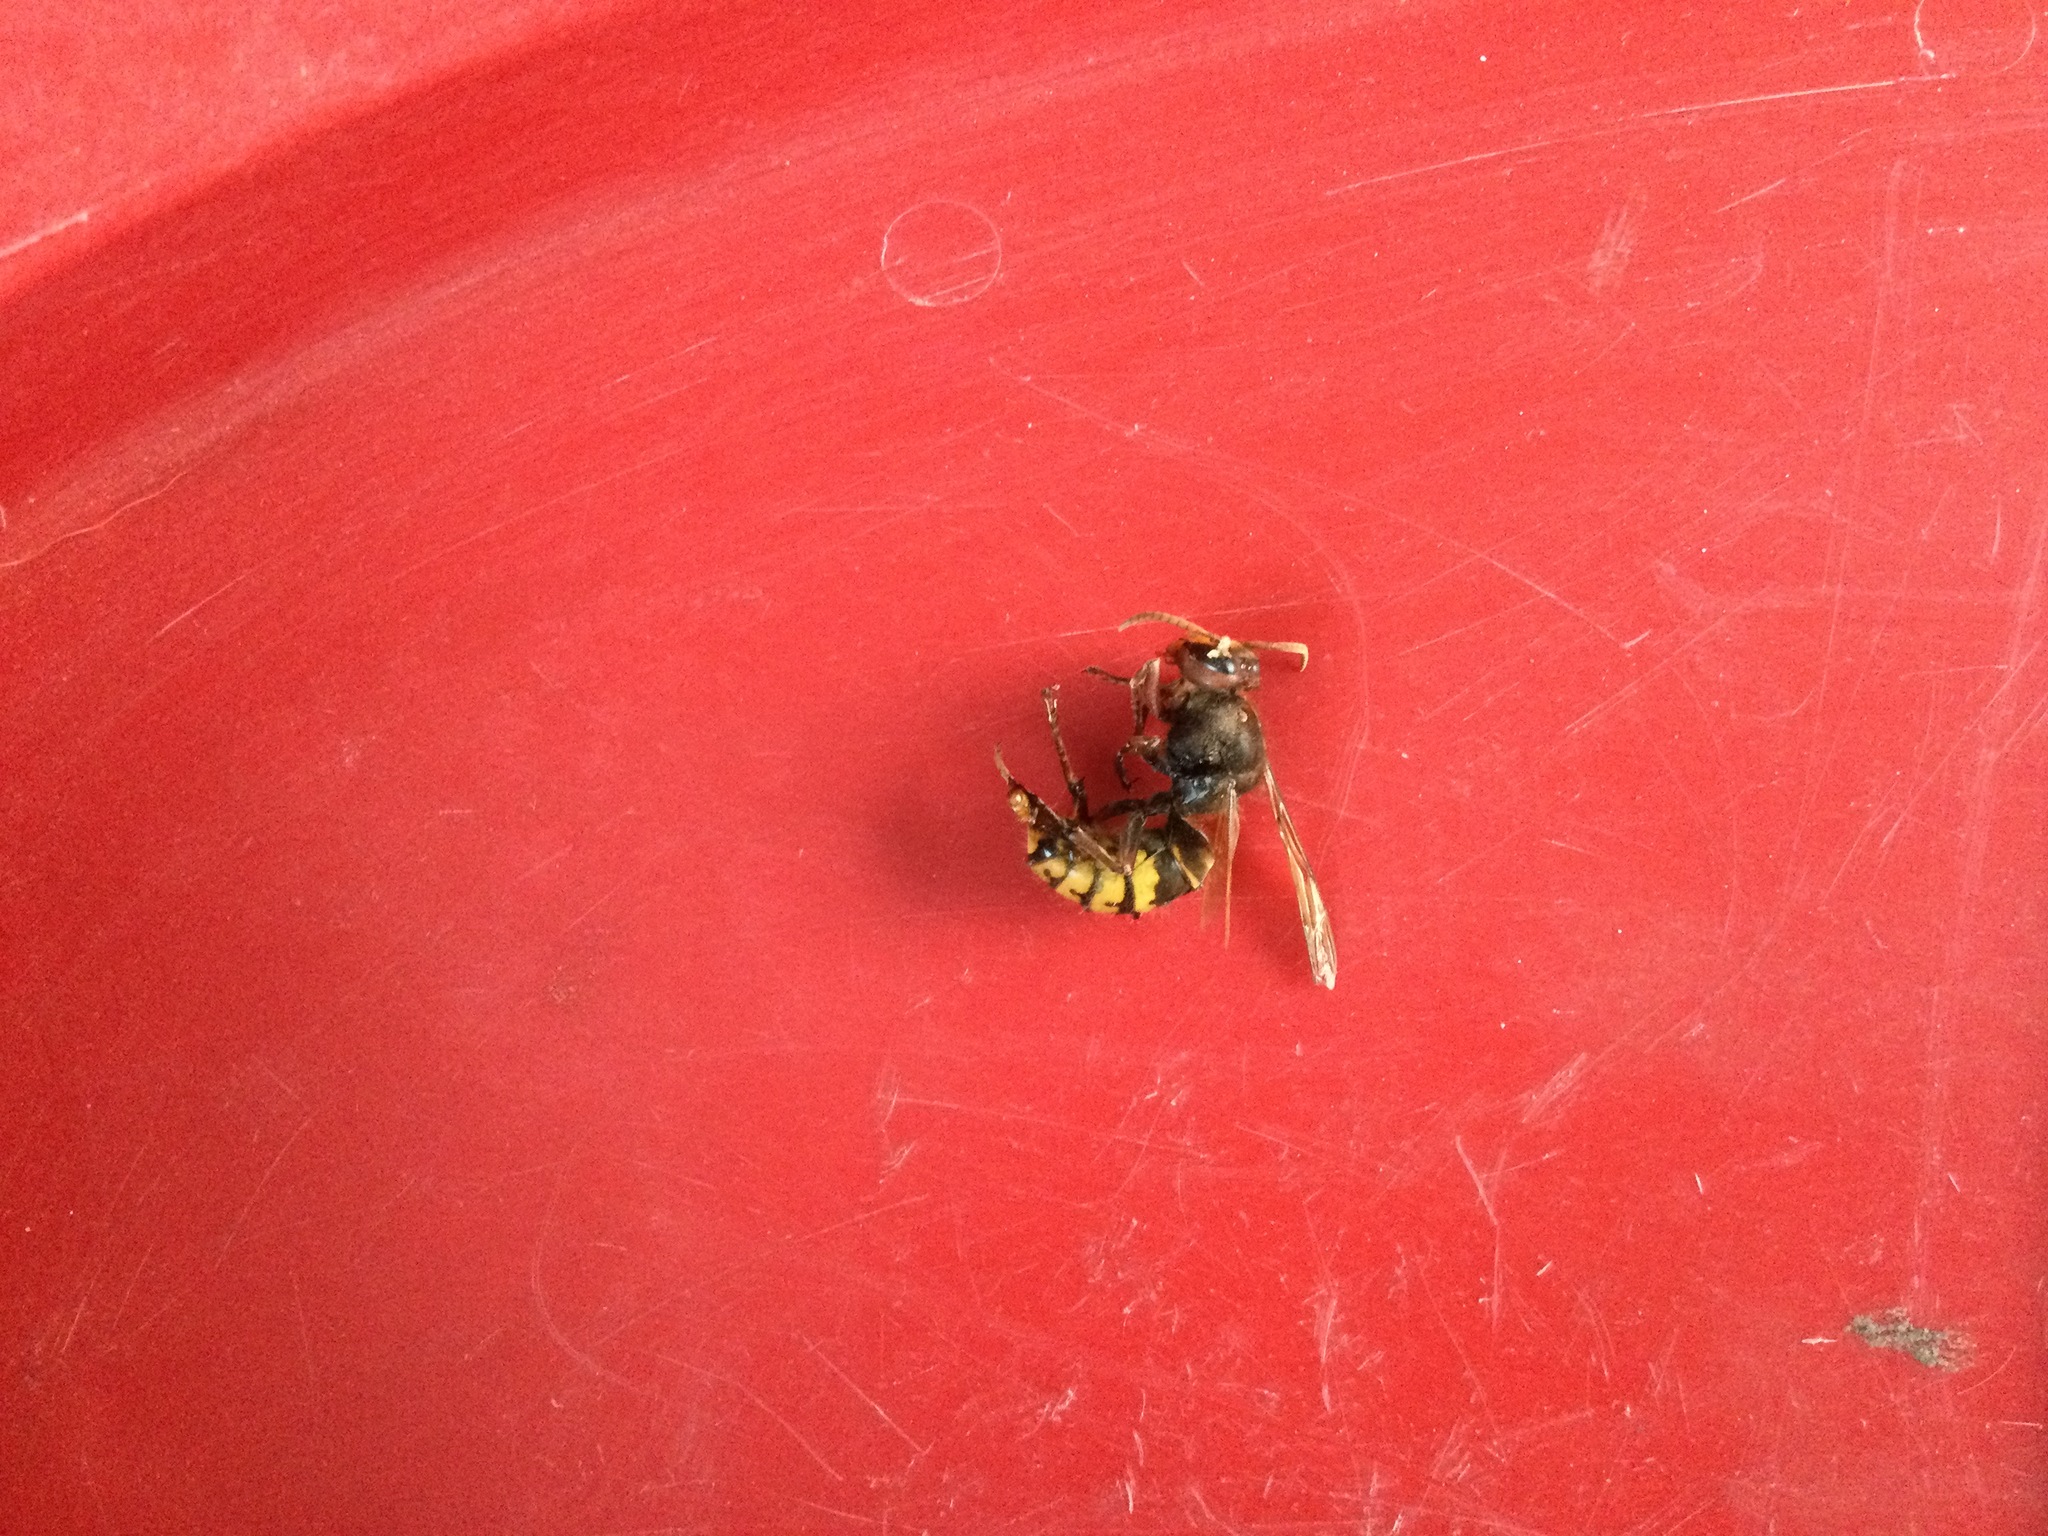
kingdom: Animalia
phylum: Arthropoda
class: Insecta
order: Hymenoptera
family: Vespidae
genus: Vespa
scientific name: Vespa crabro
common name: Hornet
